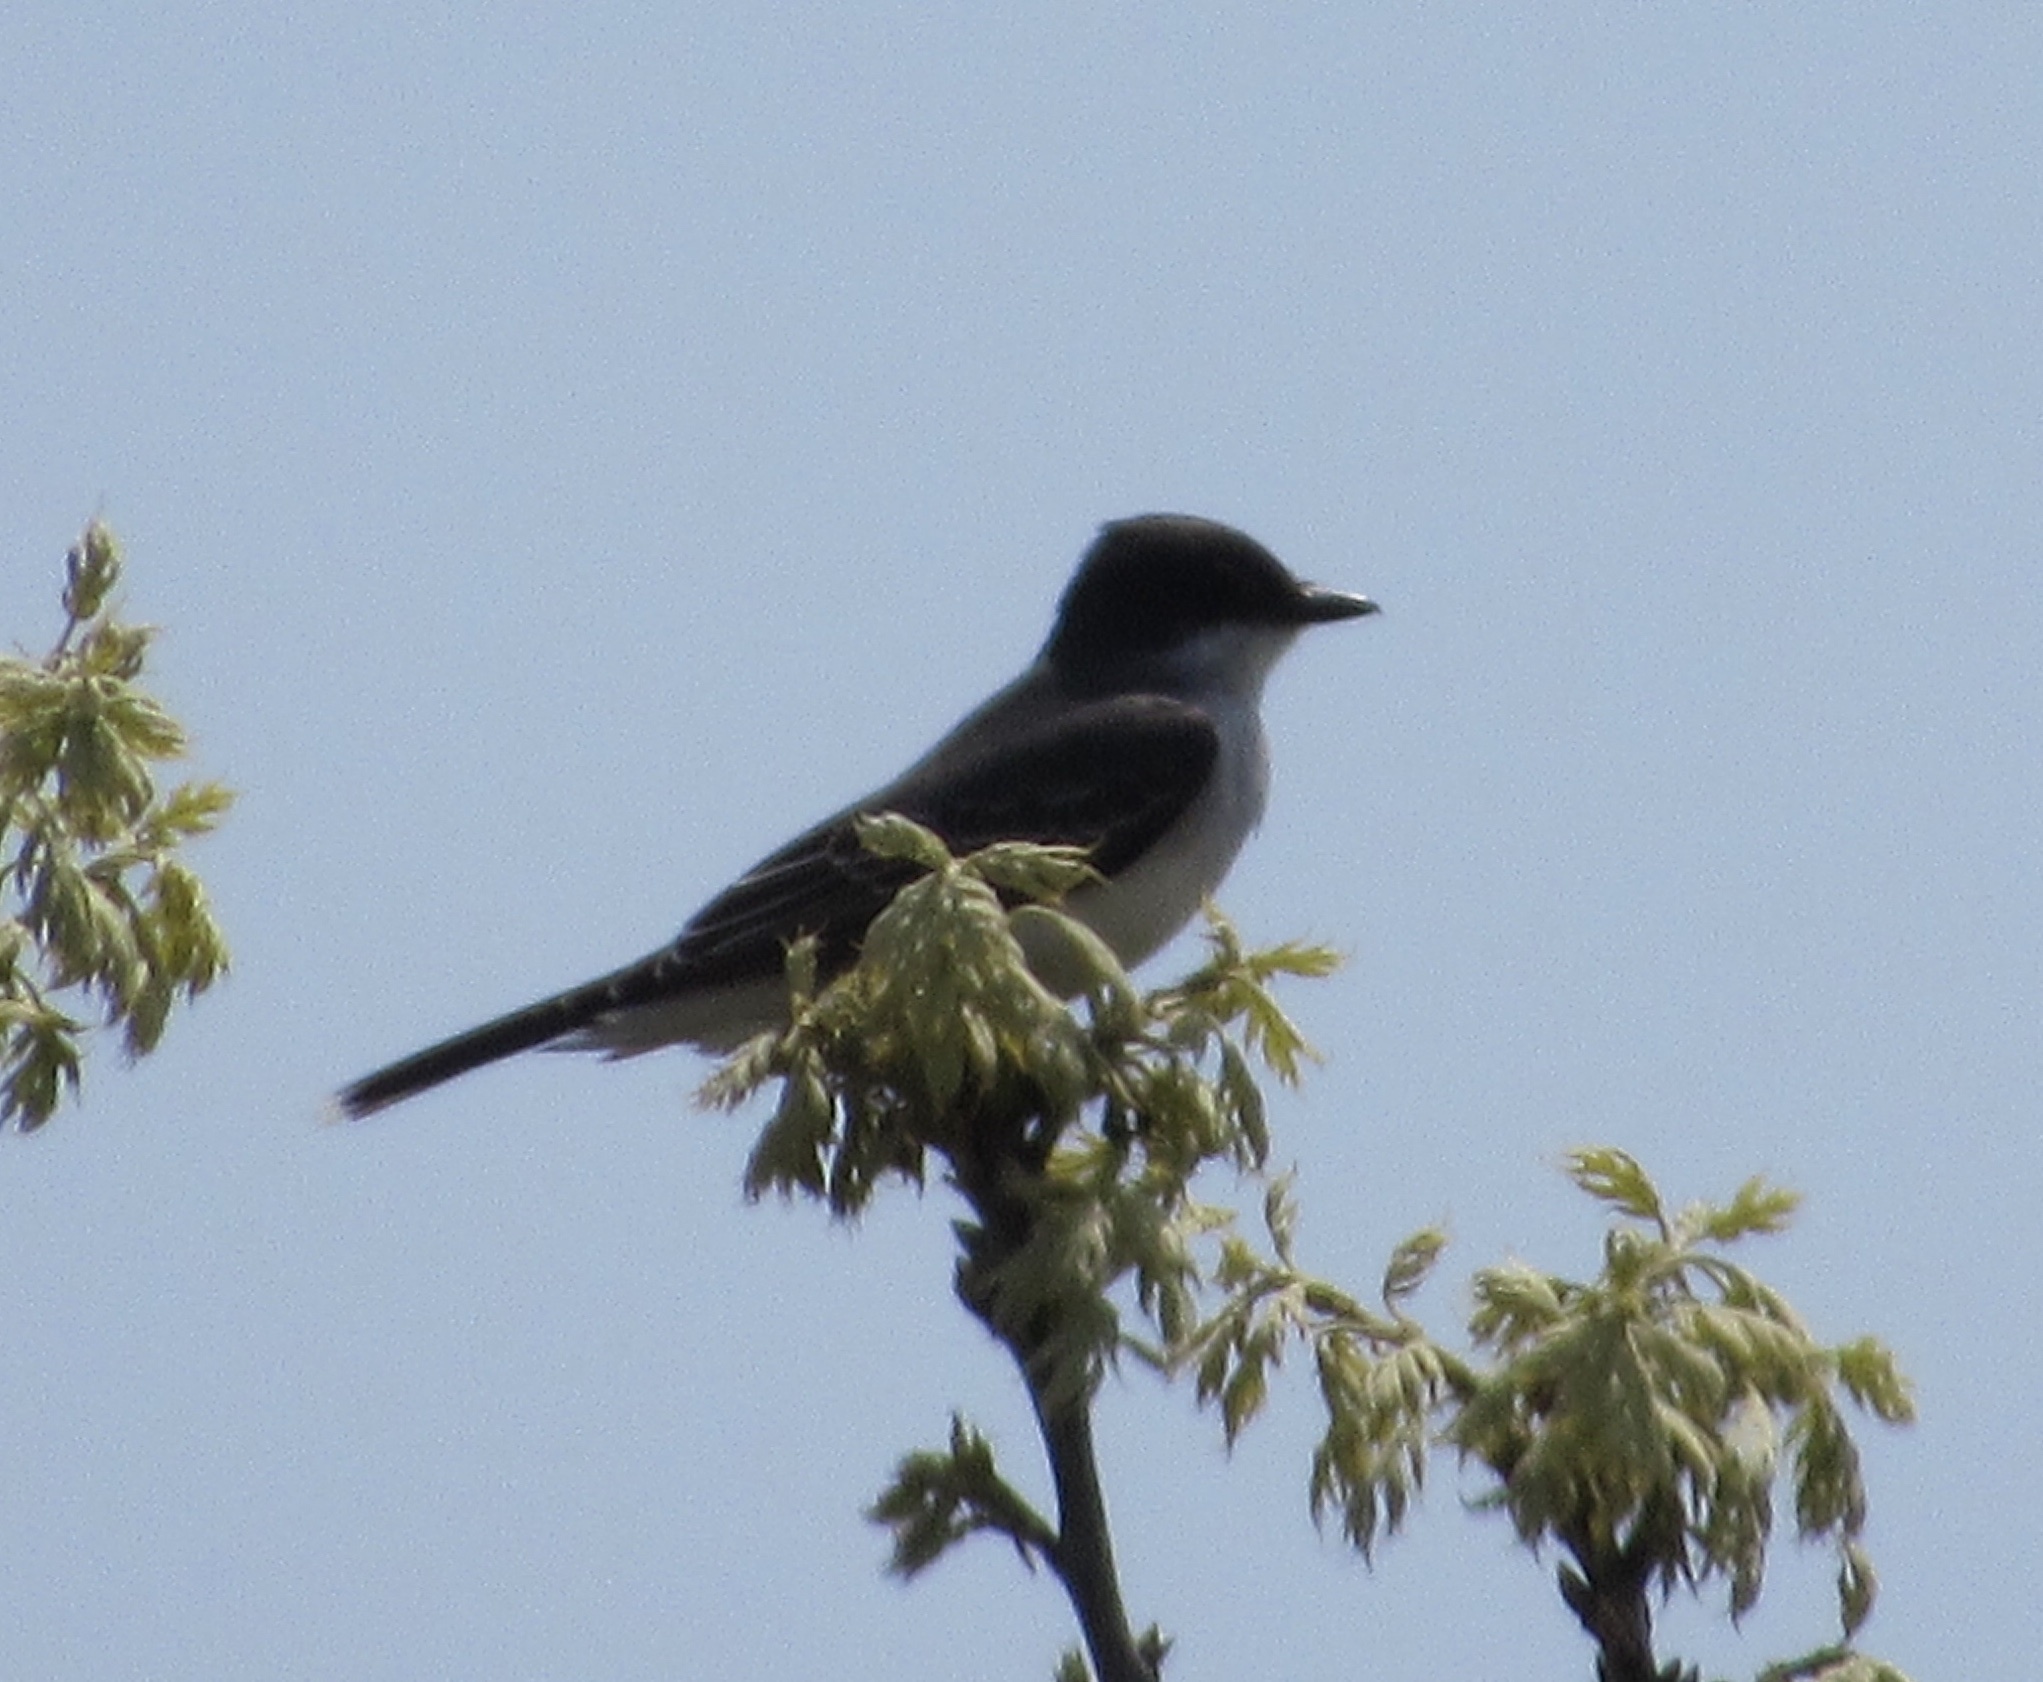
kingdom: Animalia
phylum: Chordata
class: Aves
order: Passeriformes
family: Tyrannidae
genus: Tyrannus
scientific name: Tyrannus tyrannus
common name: Eastern kingbird
